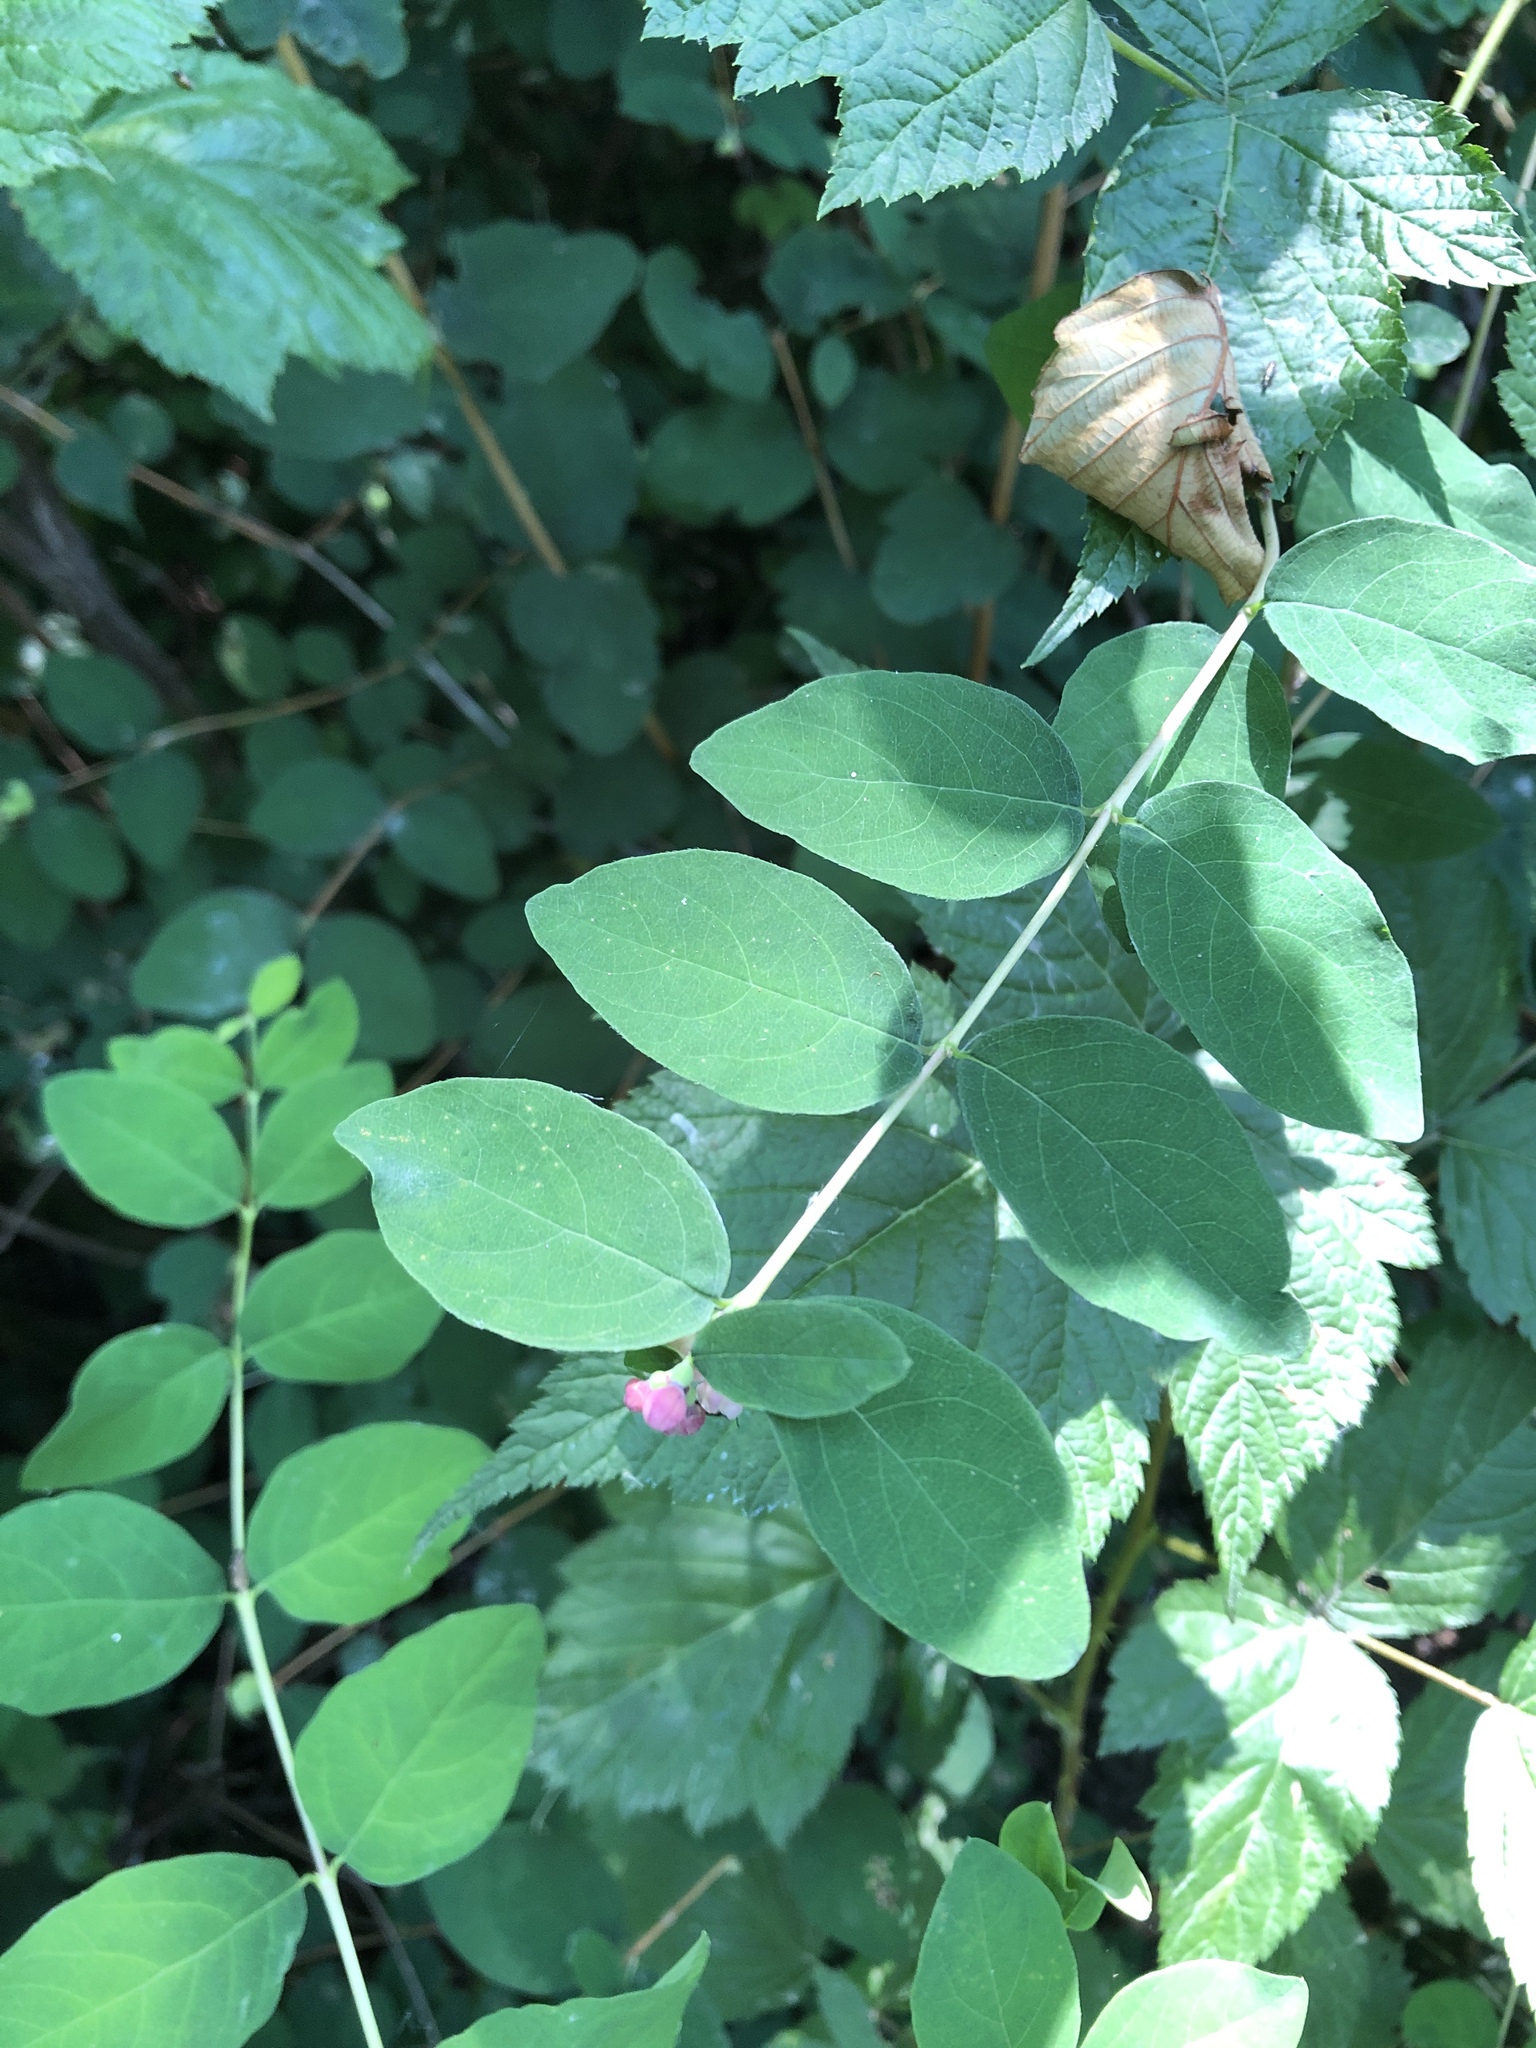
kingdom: Plantae
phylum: Tracheophyta
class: Magnoliopsida
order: Dipsacales
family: Caprifoliaceae
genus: Symphoricarpos
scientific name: Symphoricarpos albus
